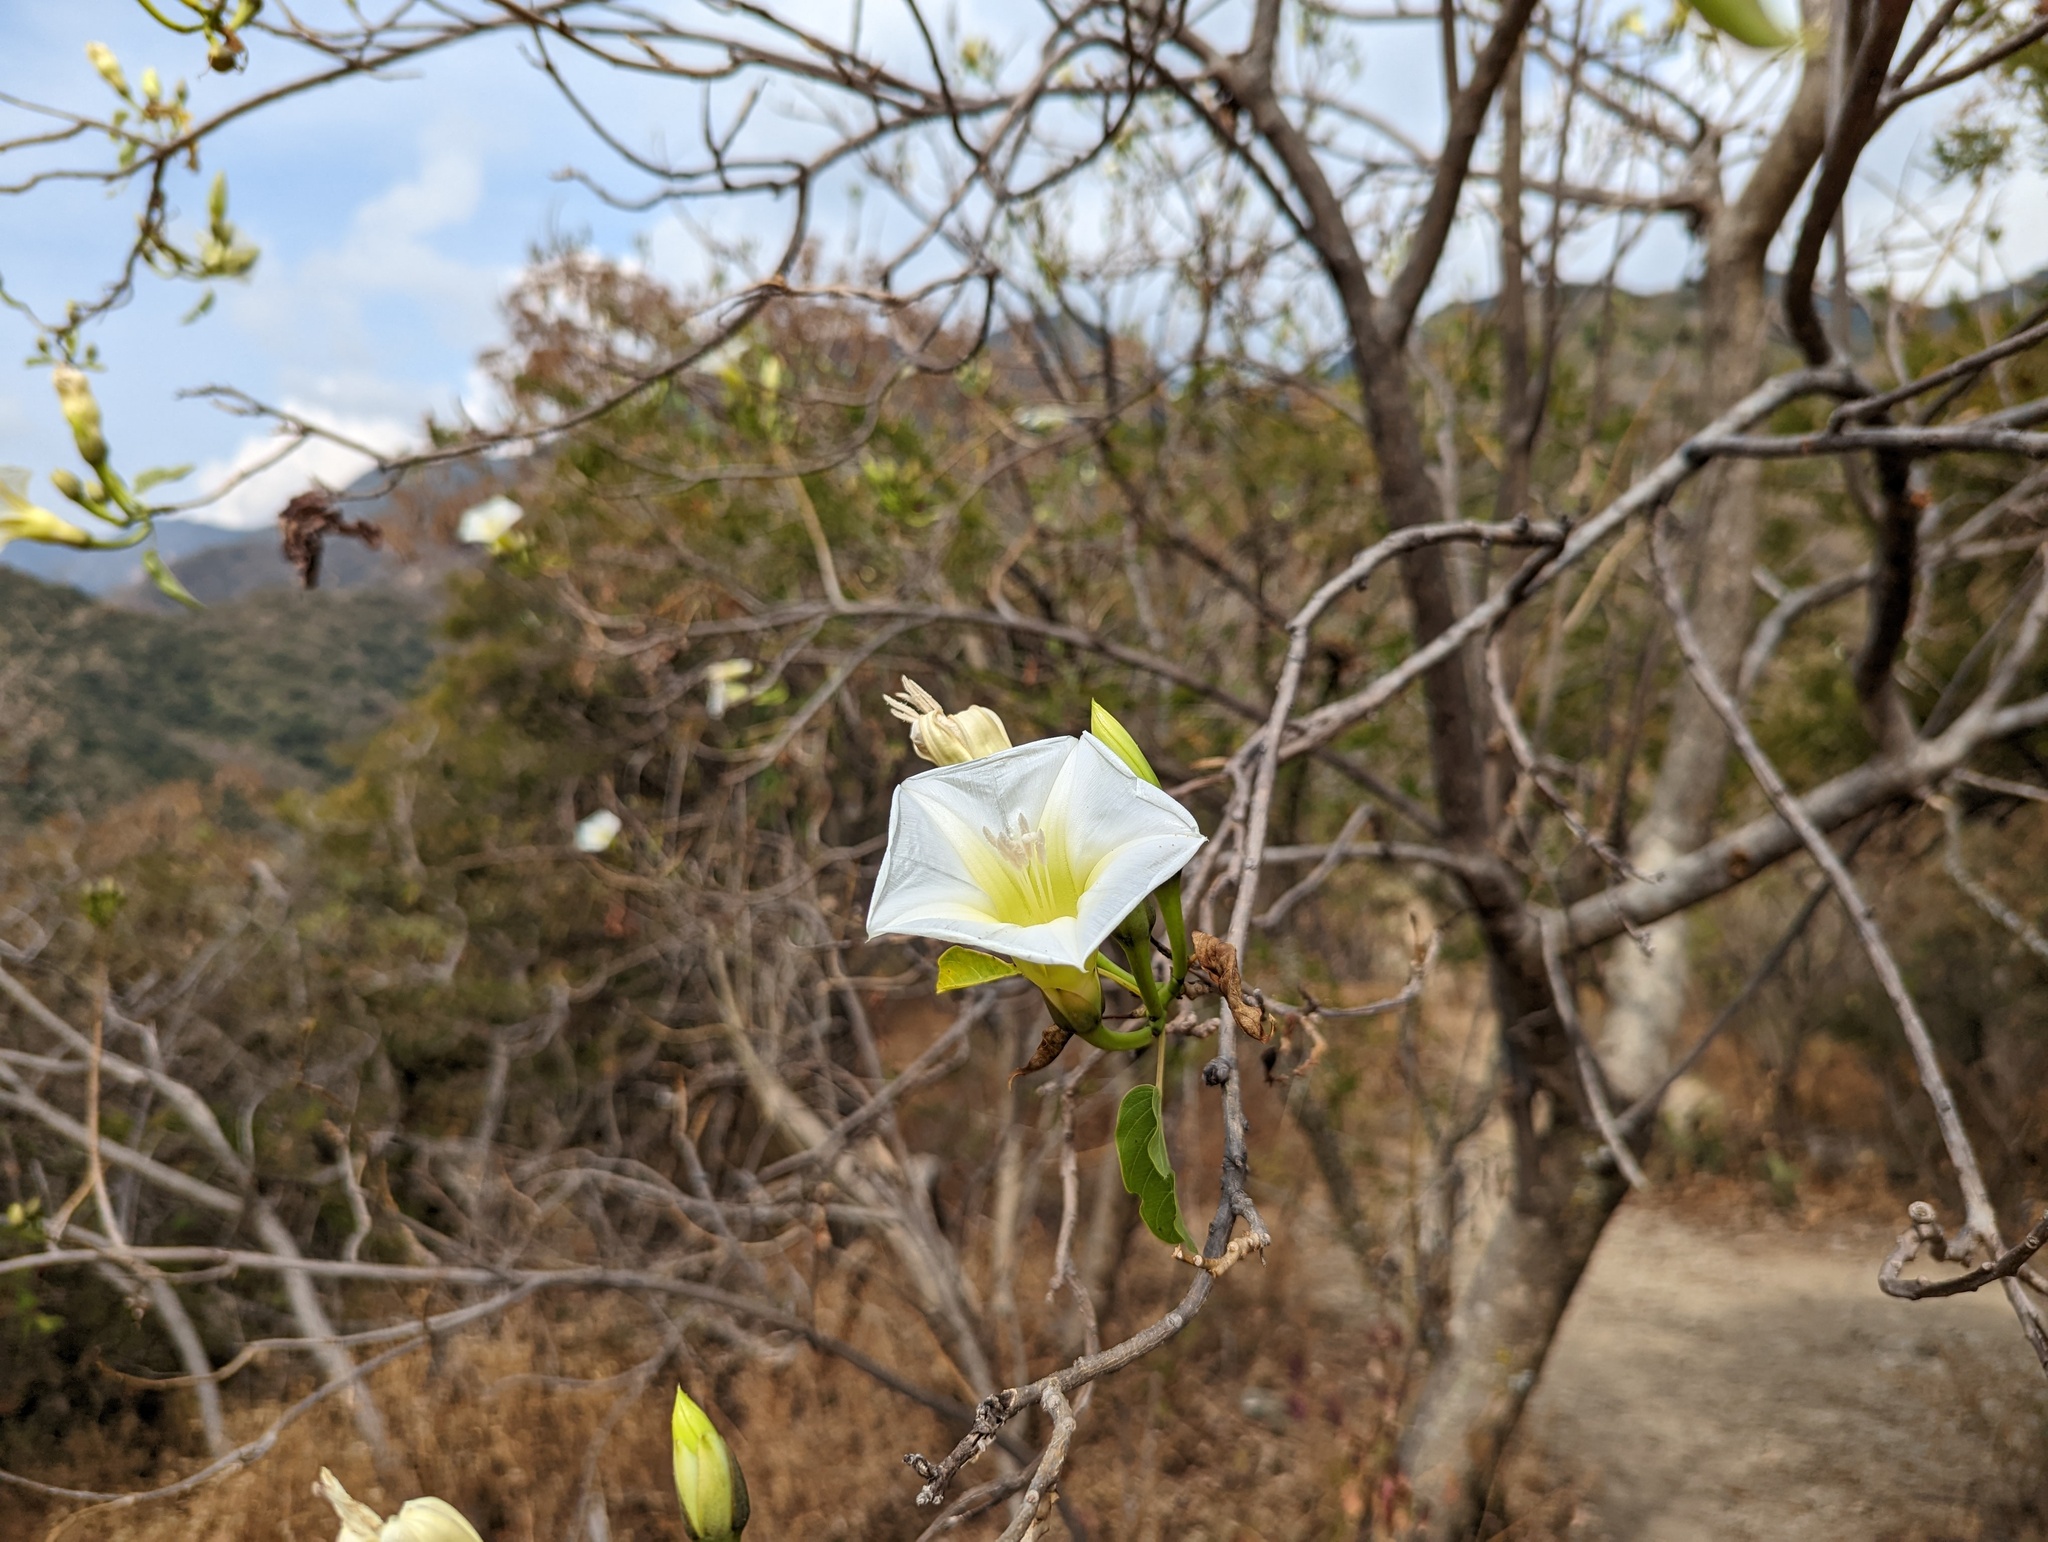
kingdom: Plantae
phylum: Tracheophyta
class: Magnoliopsida
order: Solanales
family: Convolvulaceae
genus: Ipomoea
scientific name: Ipomoea intrapilosa
